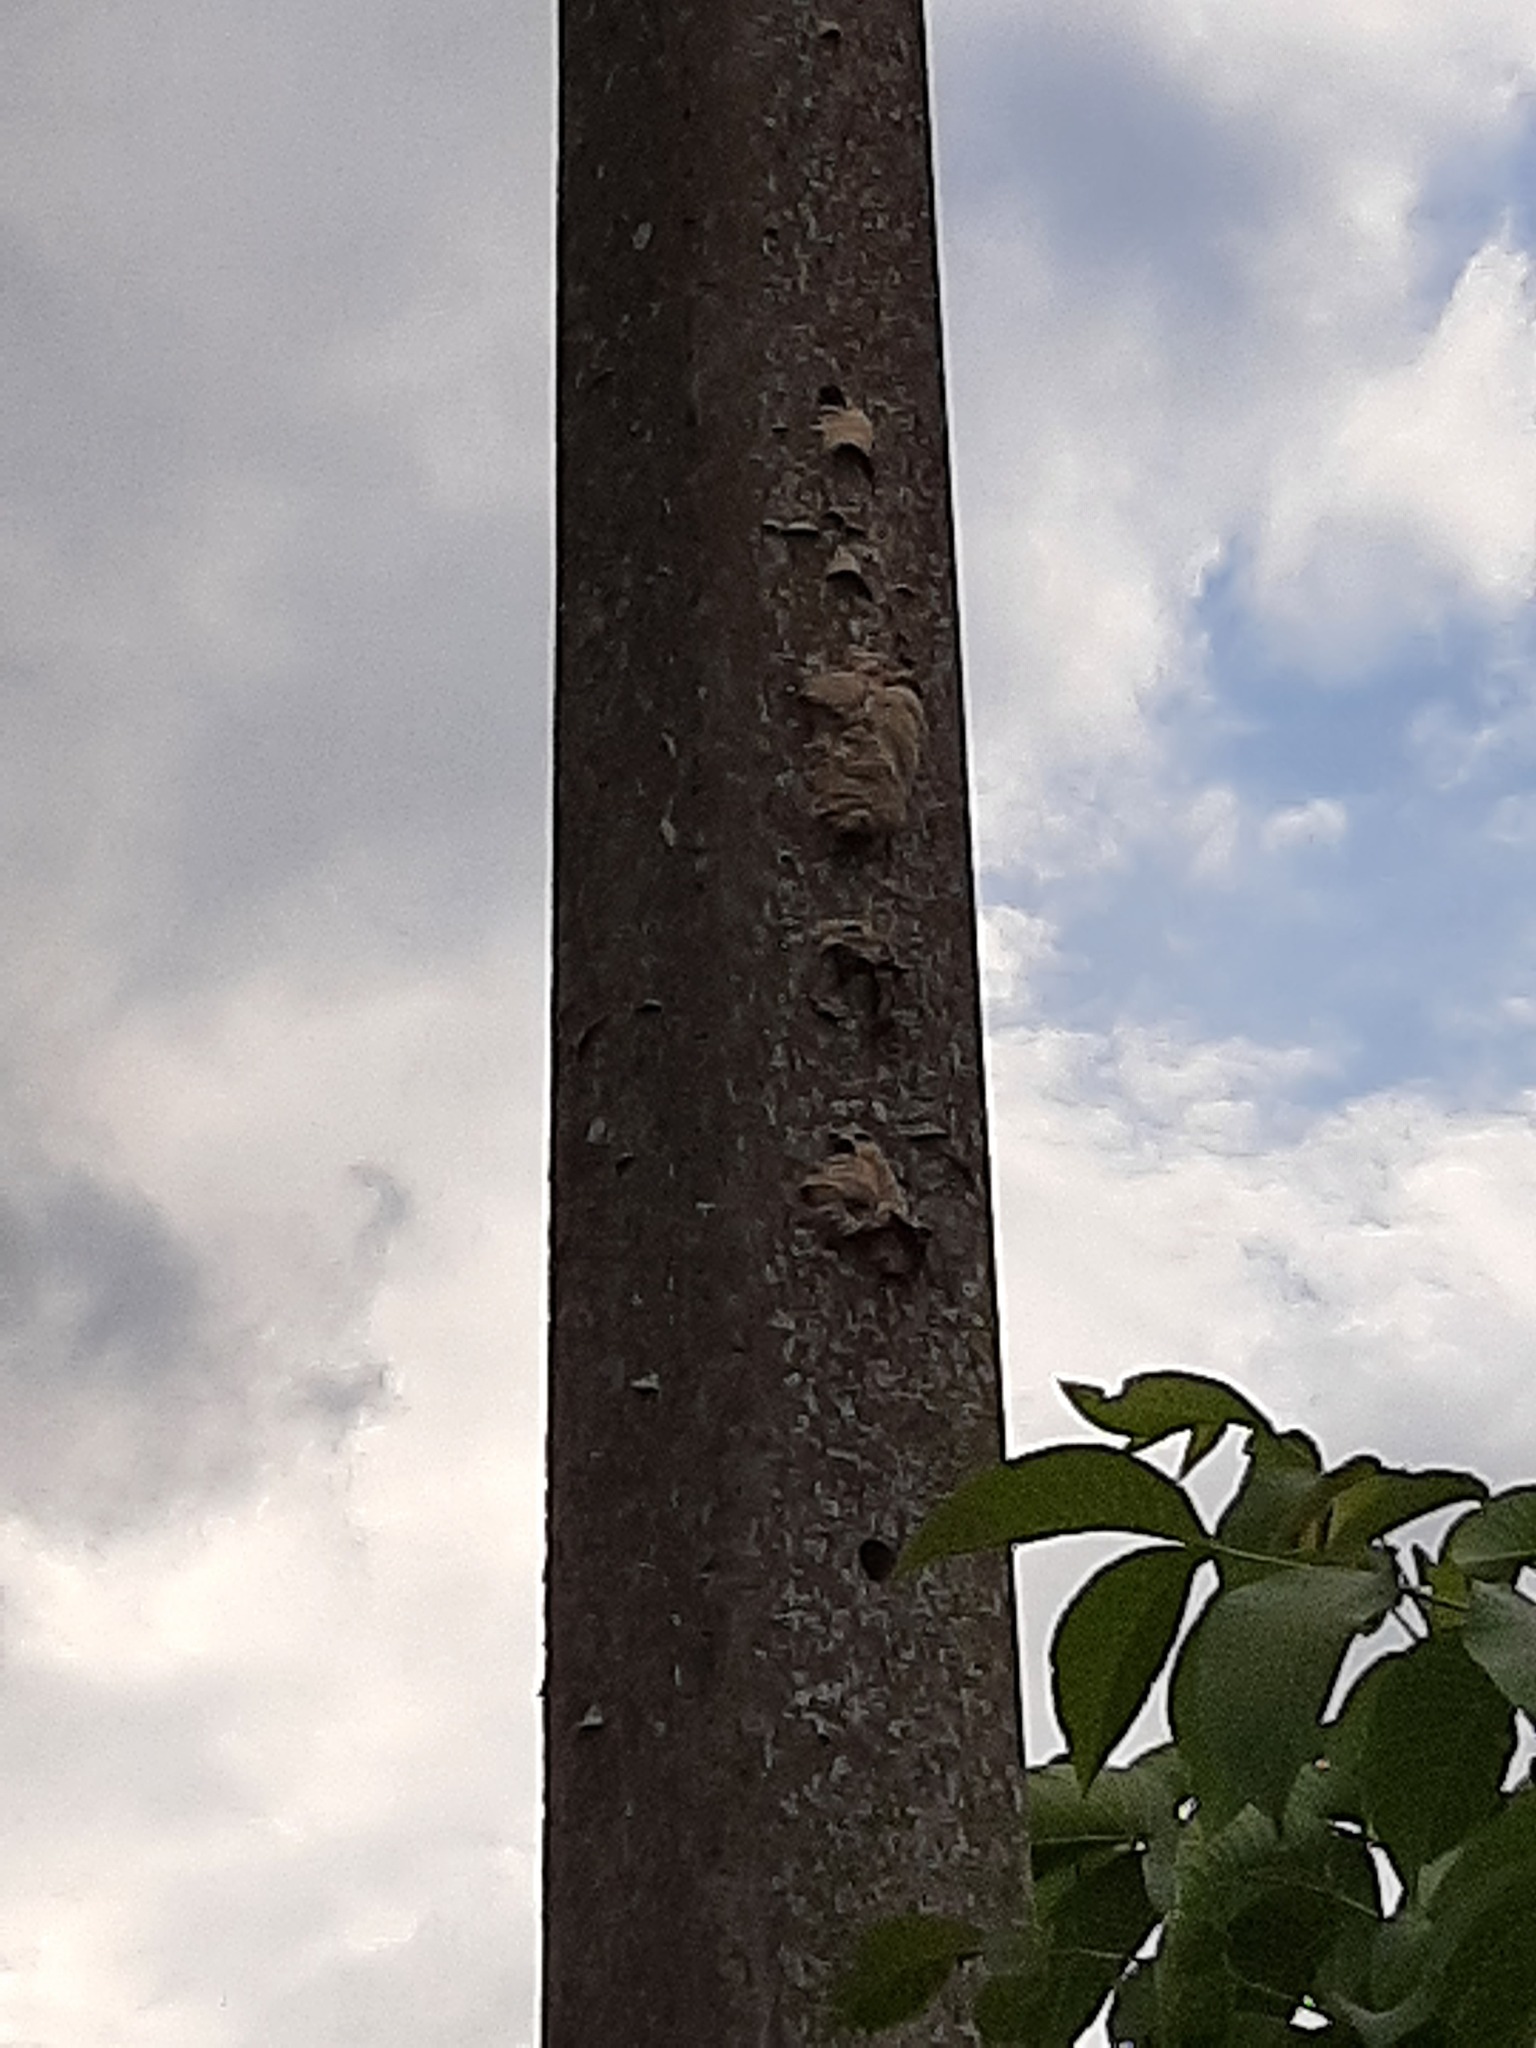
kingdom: Animalia
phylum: Arthropoda
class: Insecta
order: Hymenoptera
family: Vespidae
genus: Vespa
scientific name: Vespa velutina
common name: Asian hornet
